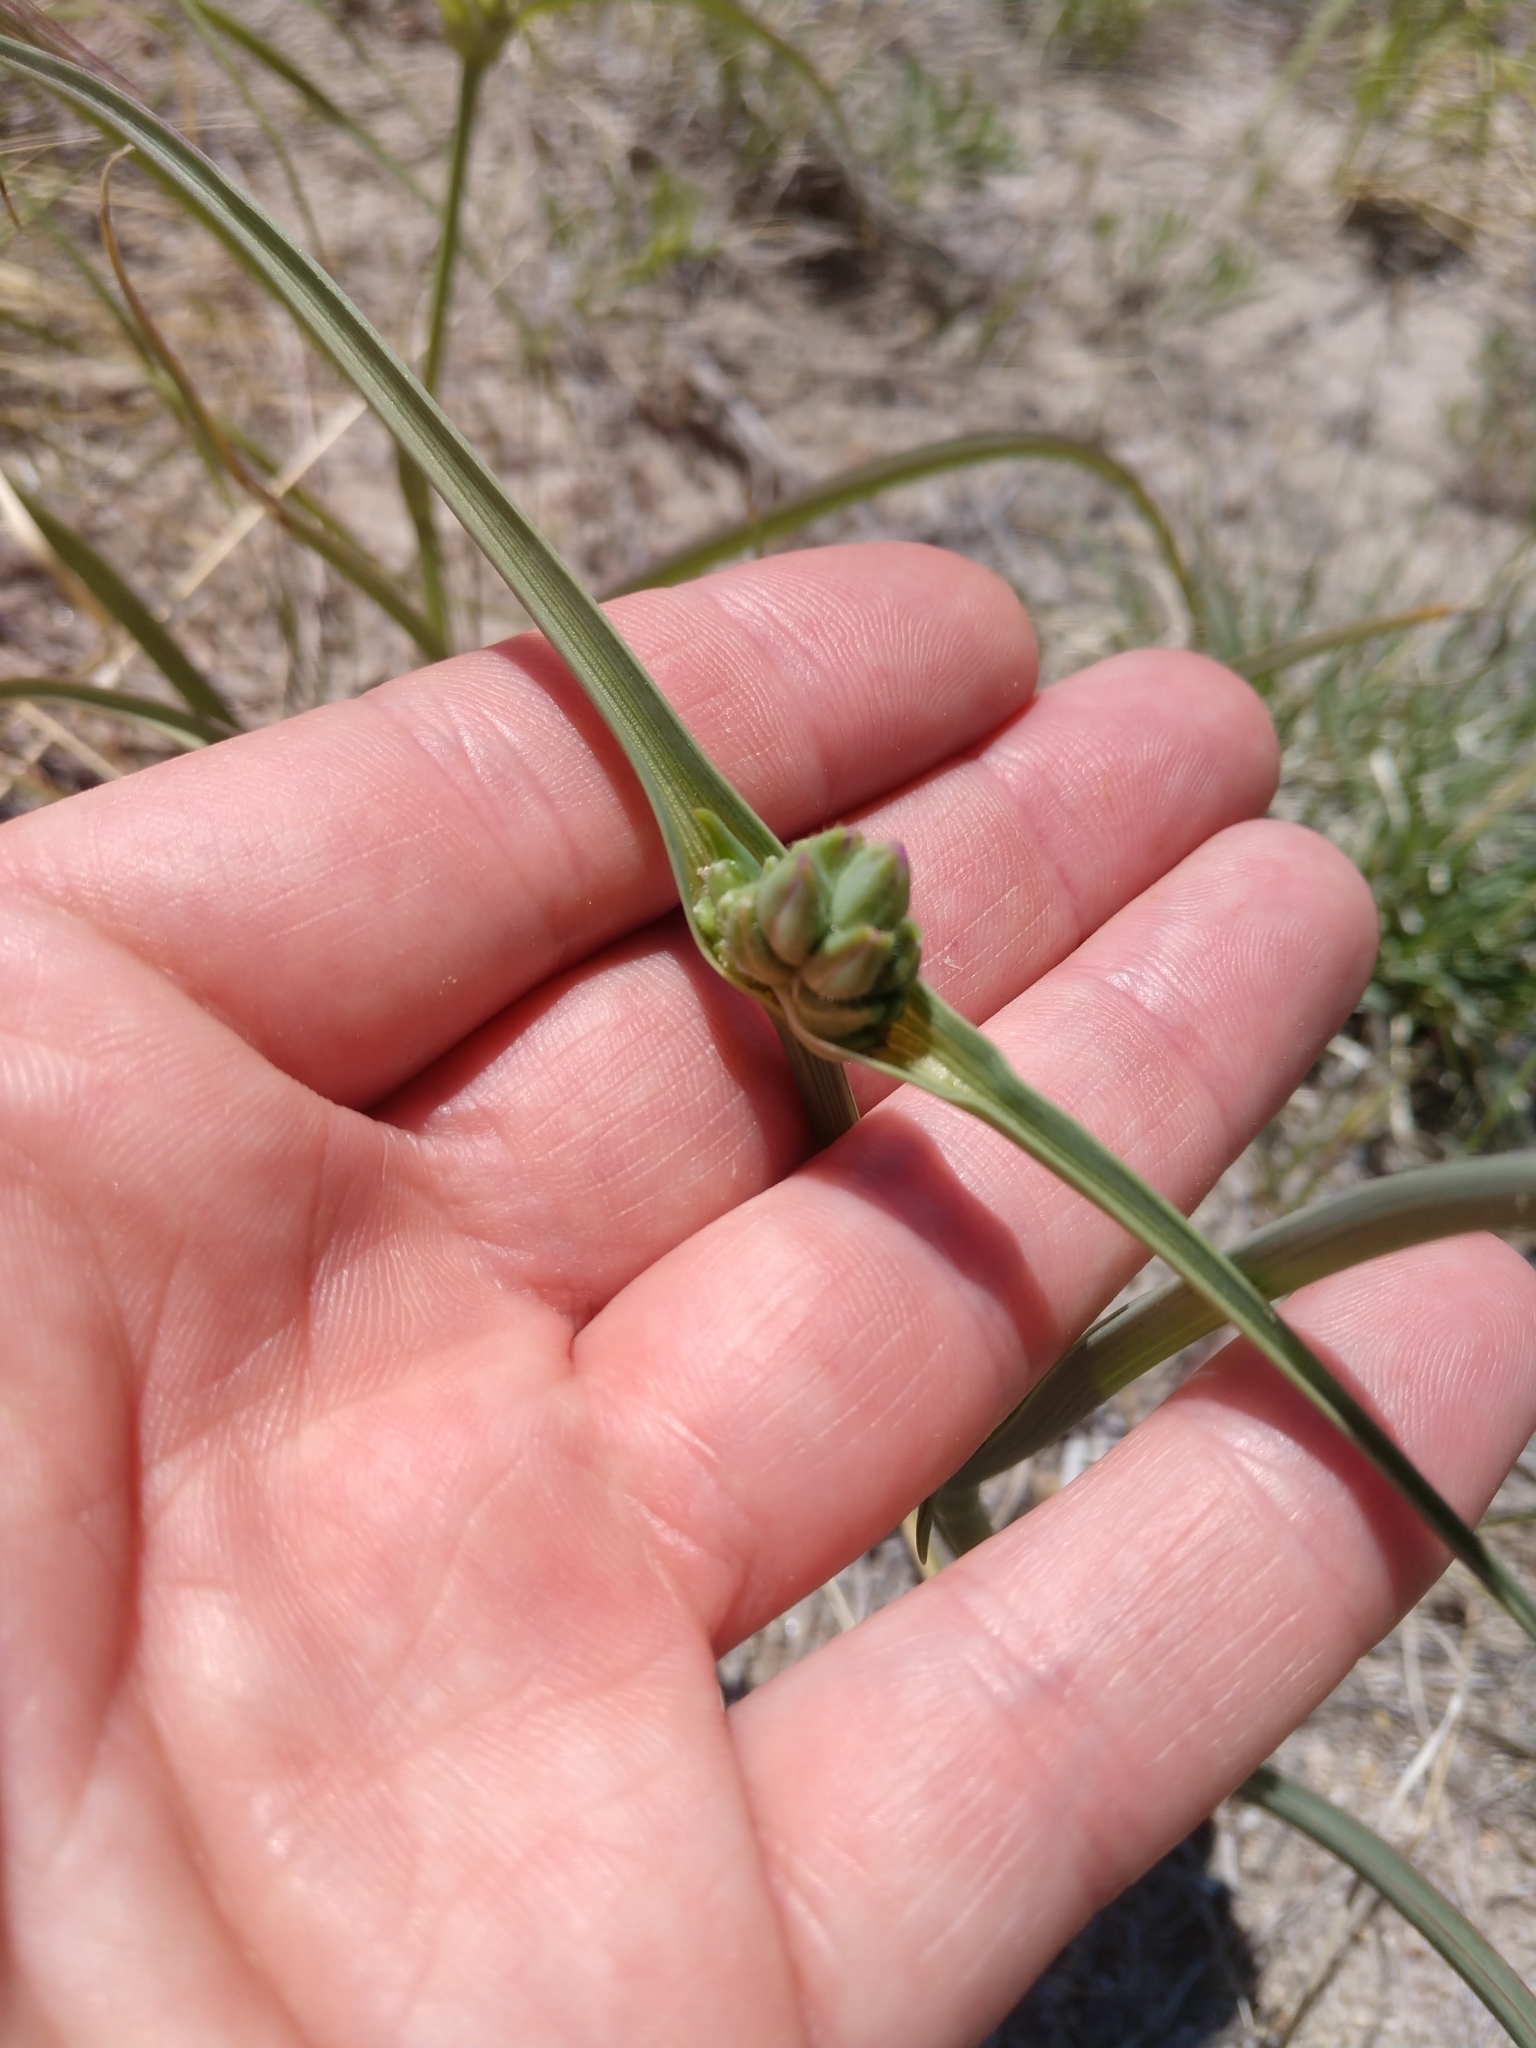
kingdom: Plantae
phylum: Tracheophyta
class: Liliopsida
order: Commelinales
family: Commelinaceae
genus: Tradescantia
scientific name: Tradescantia occidentalis
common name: Prairie spiderwort
